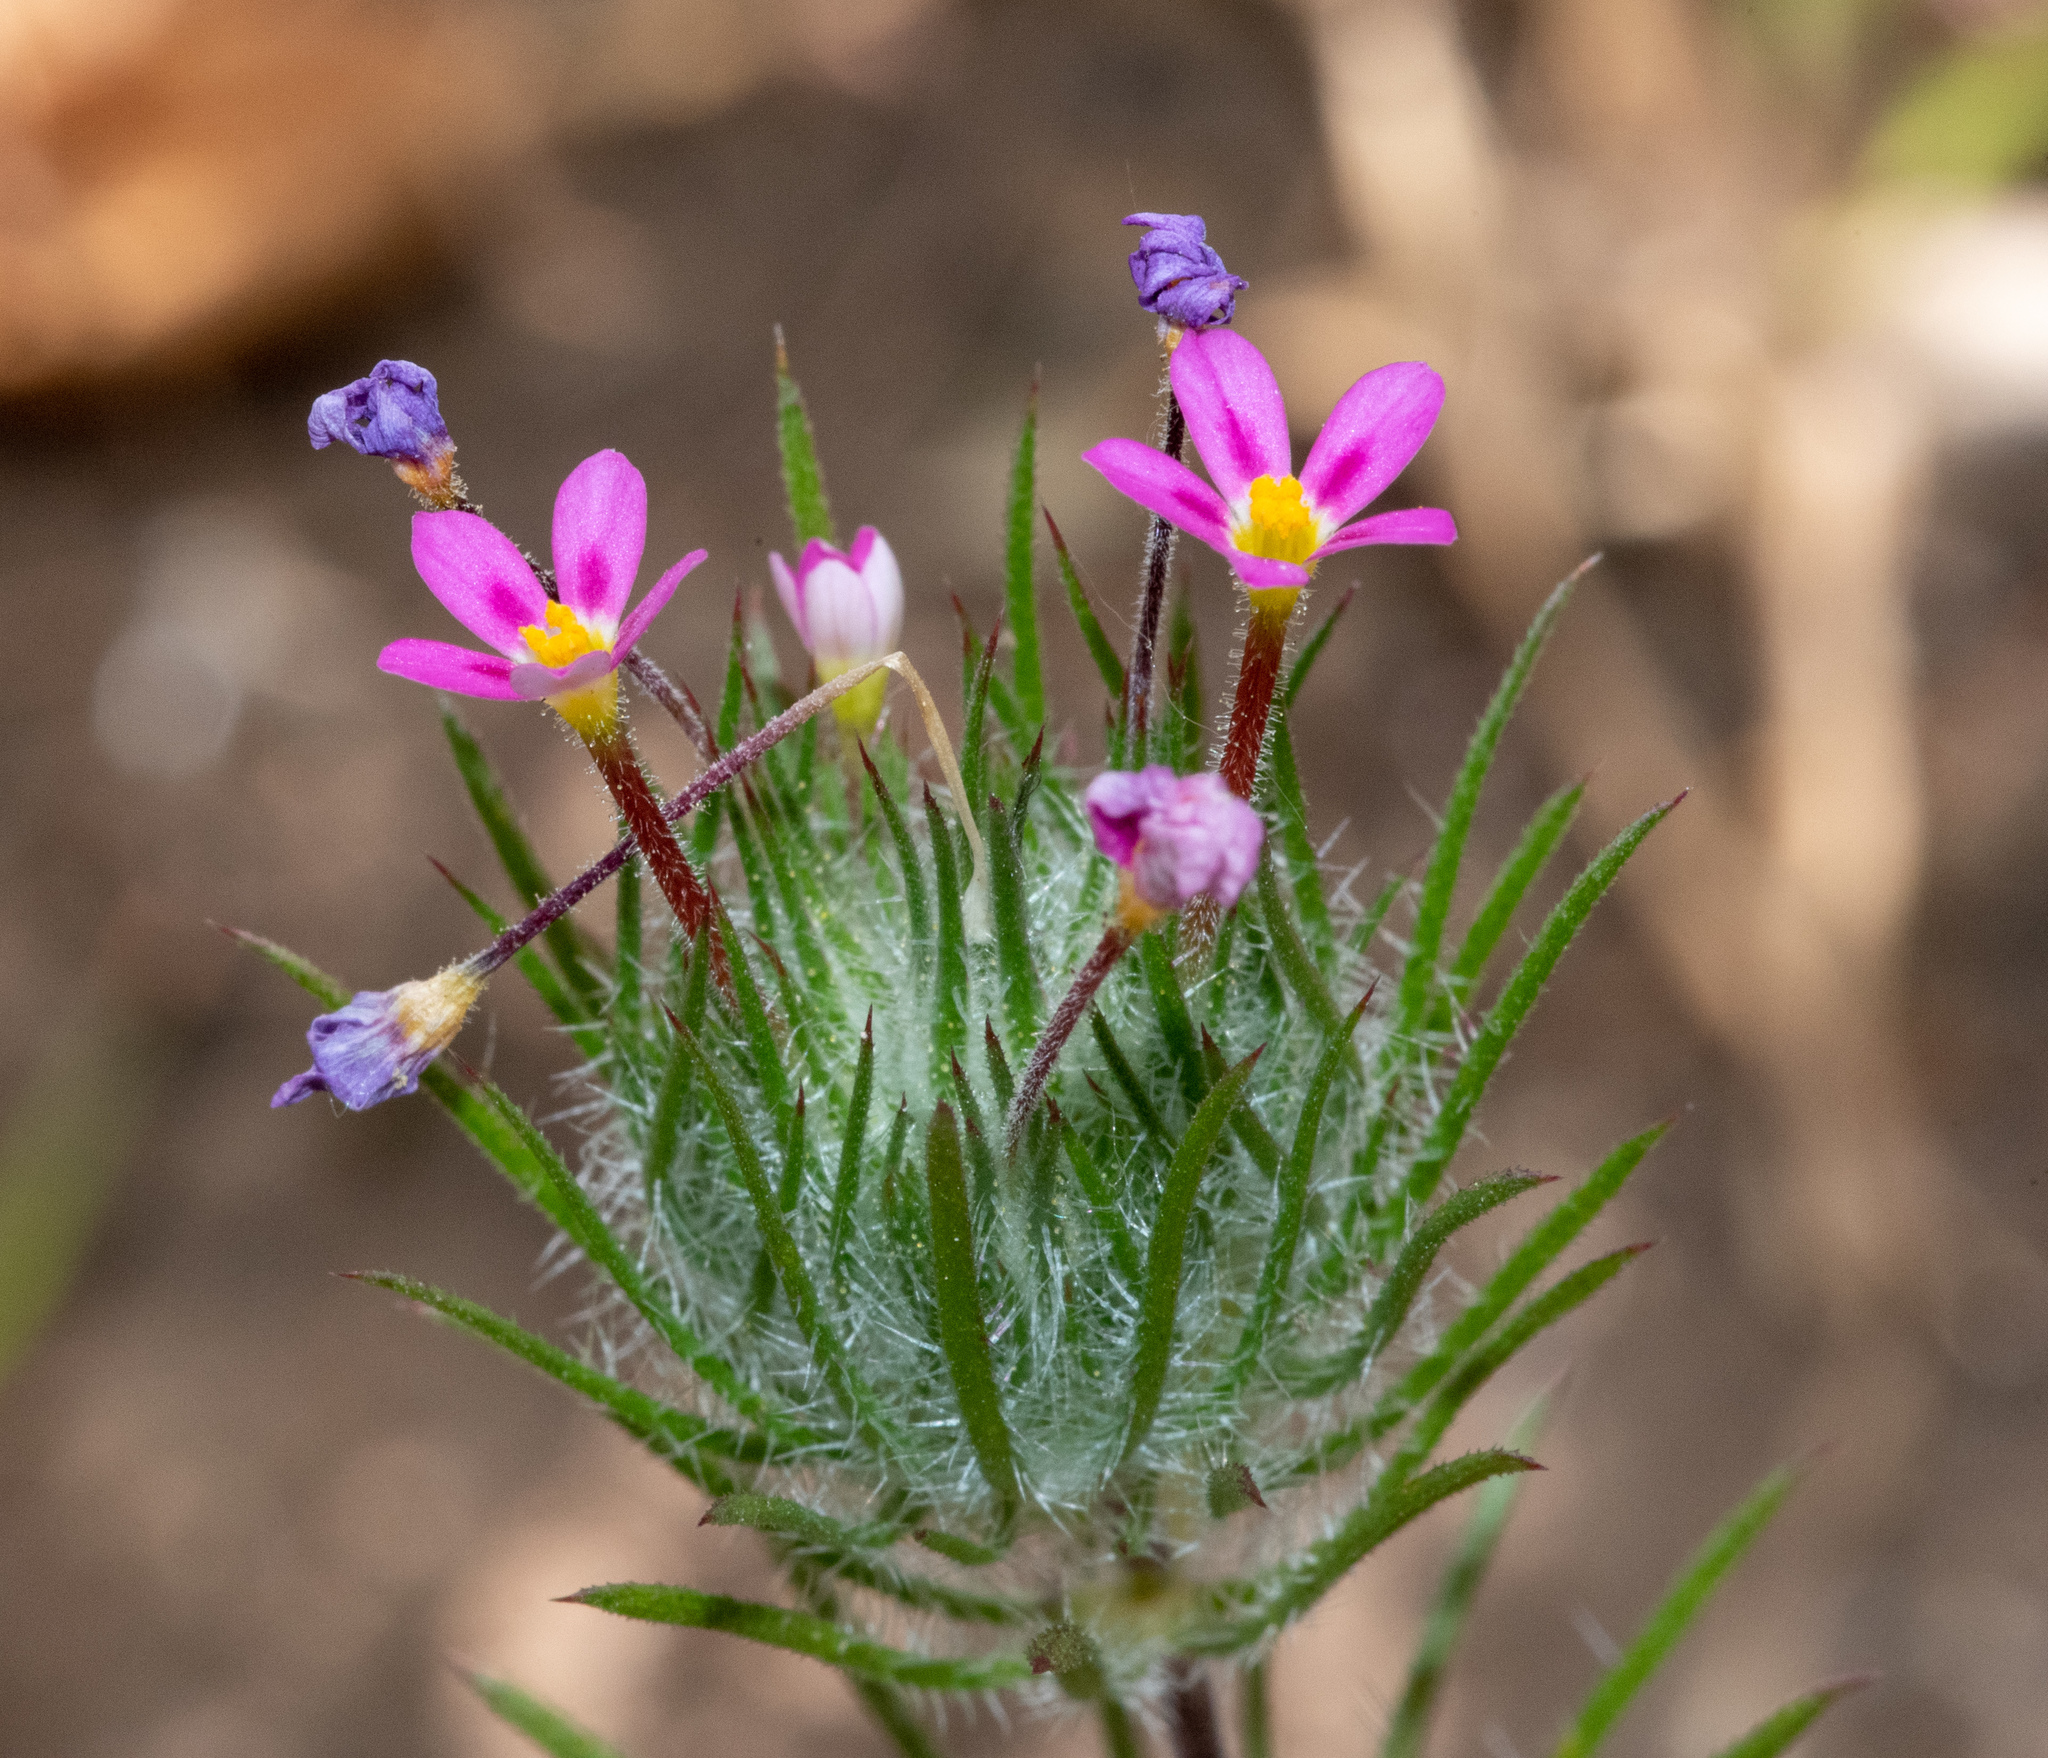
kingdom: Plantae
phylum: Tracheophyta
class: Magnoliopsida
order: Ericales
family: Polemoniaceae
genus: Leptosiphon
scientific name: Leptosiphon ciliatus
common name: Whiskerbrush
